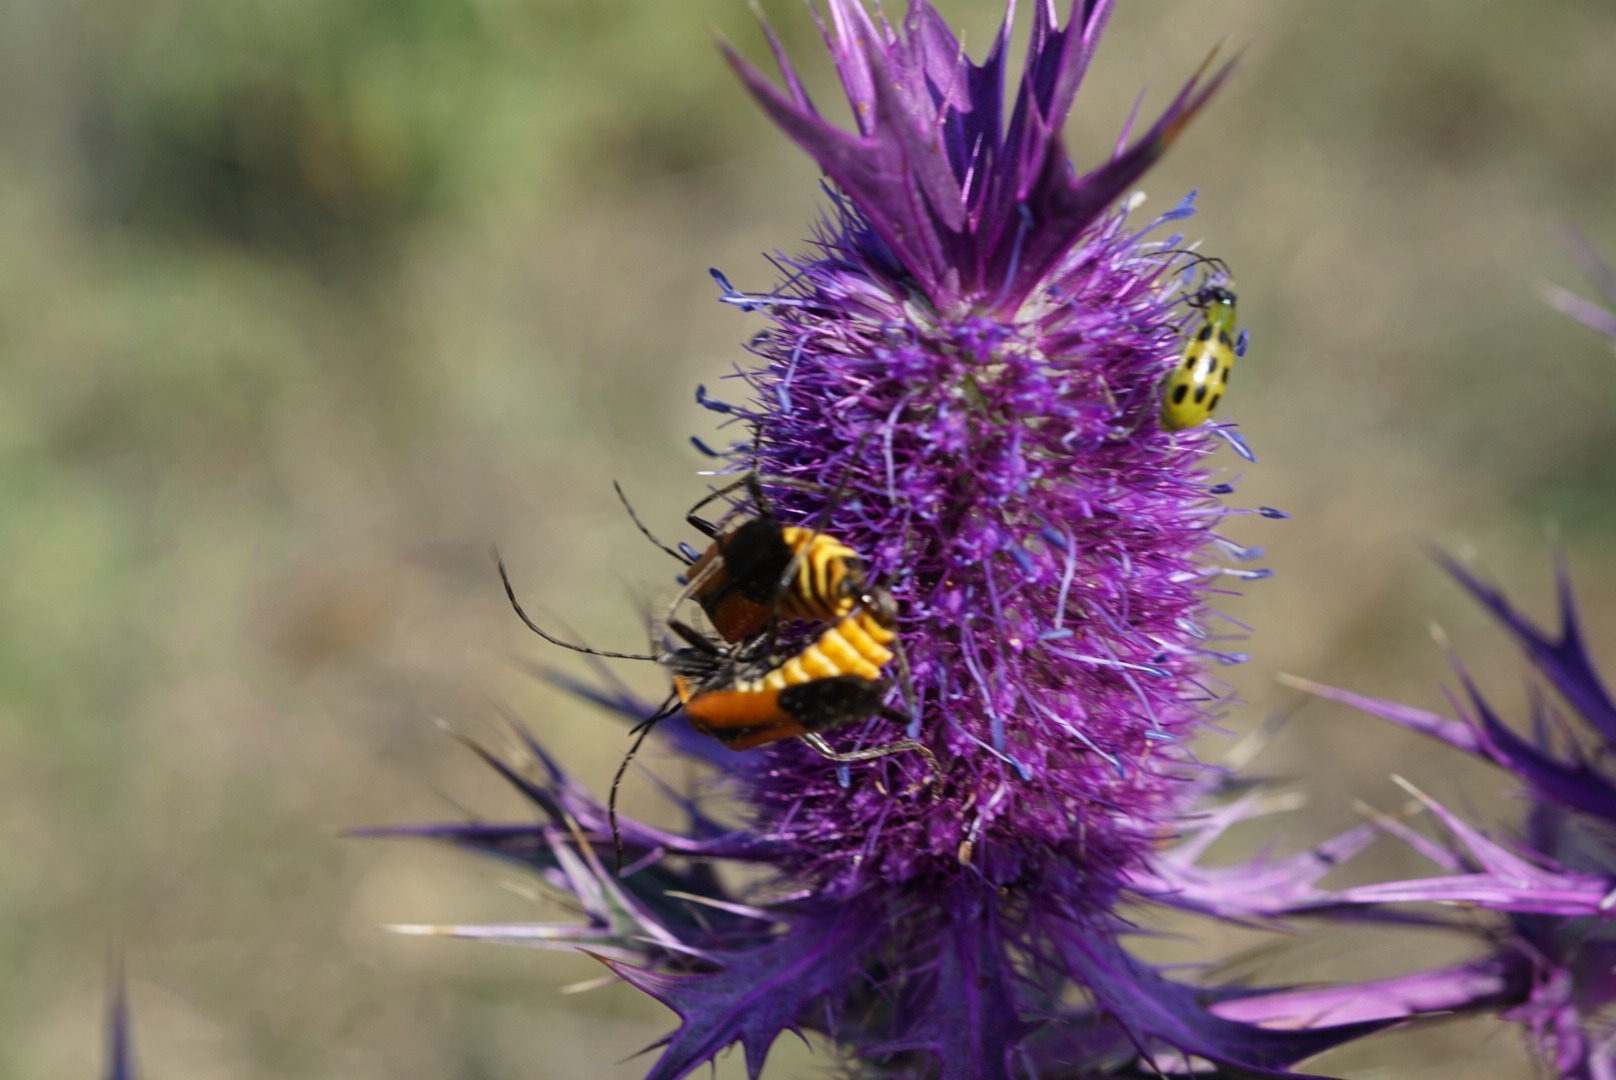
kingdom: Animalia
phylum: Arthropoda
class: Insecta
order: Coleoptera
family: Cantharidae
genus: Chauliognathus
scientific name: Chauliognathus
